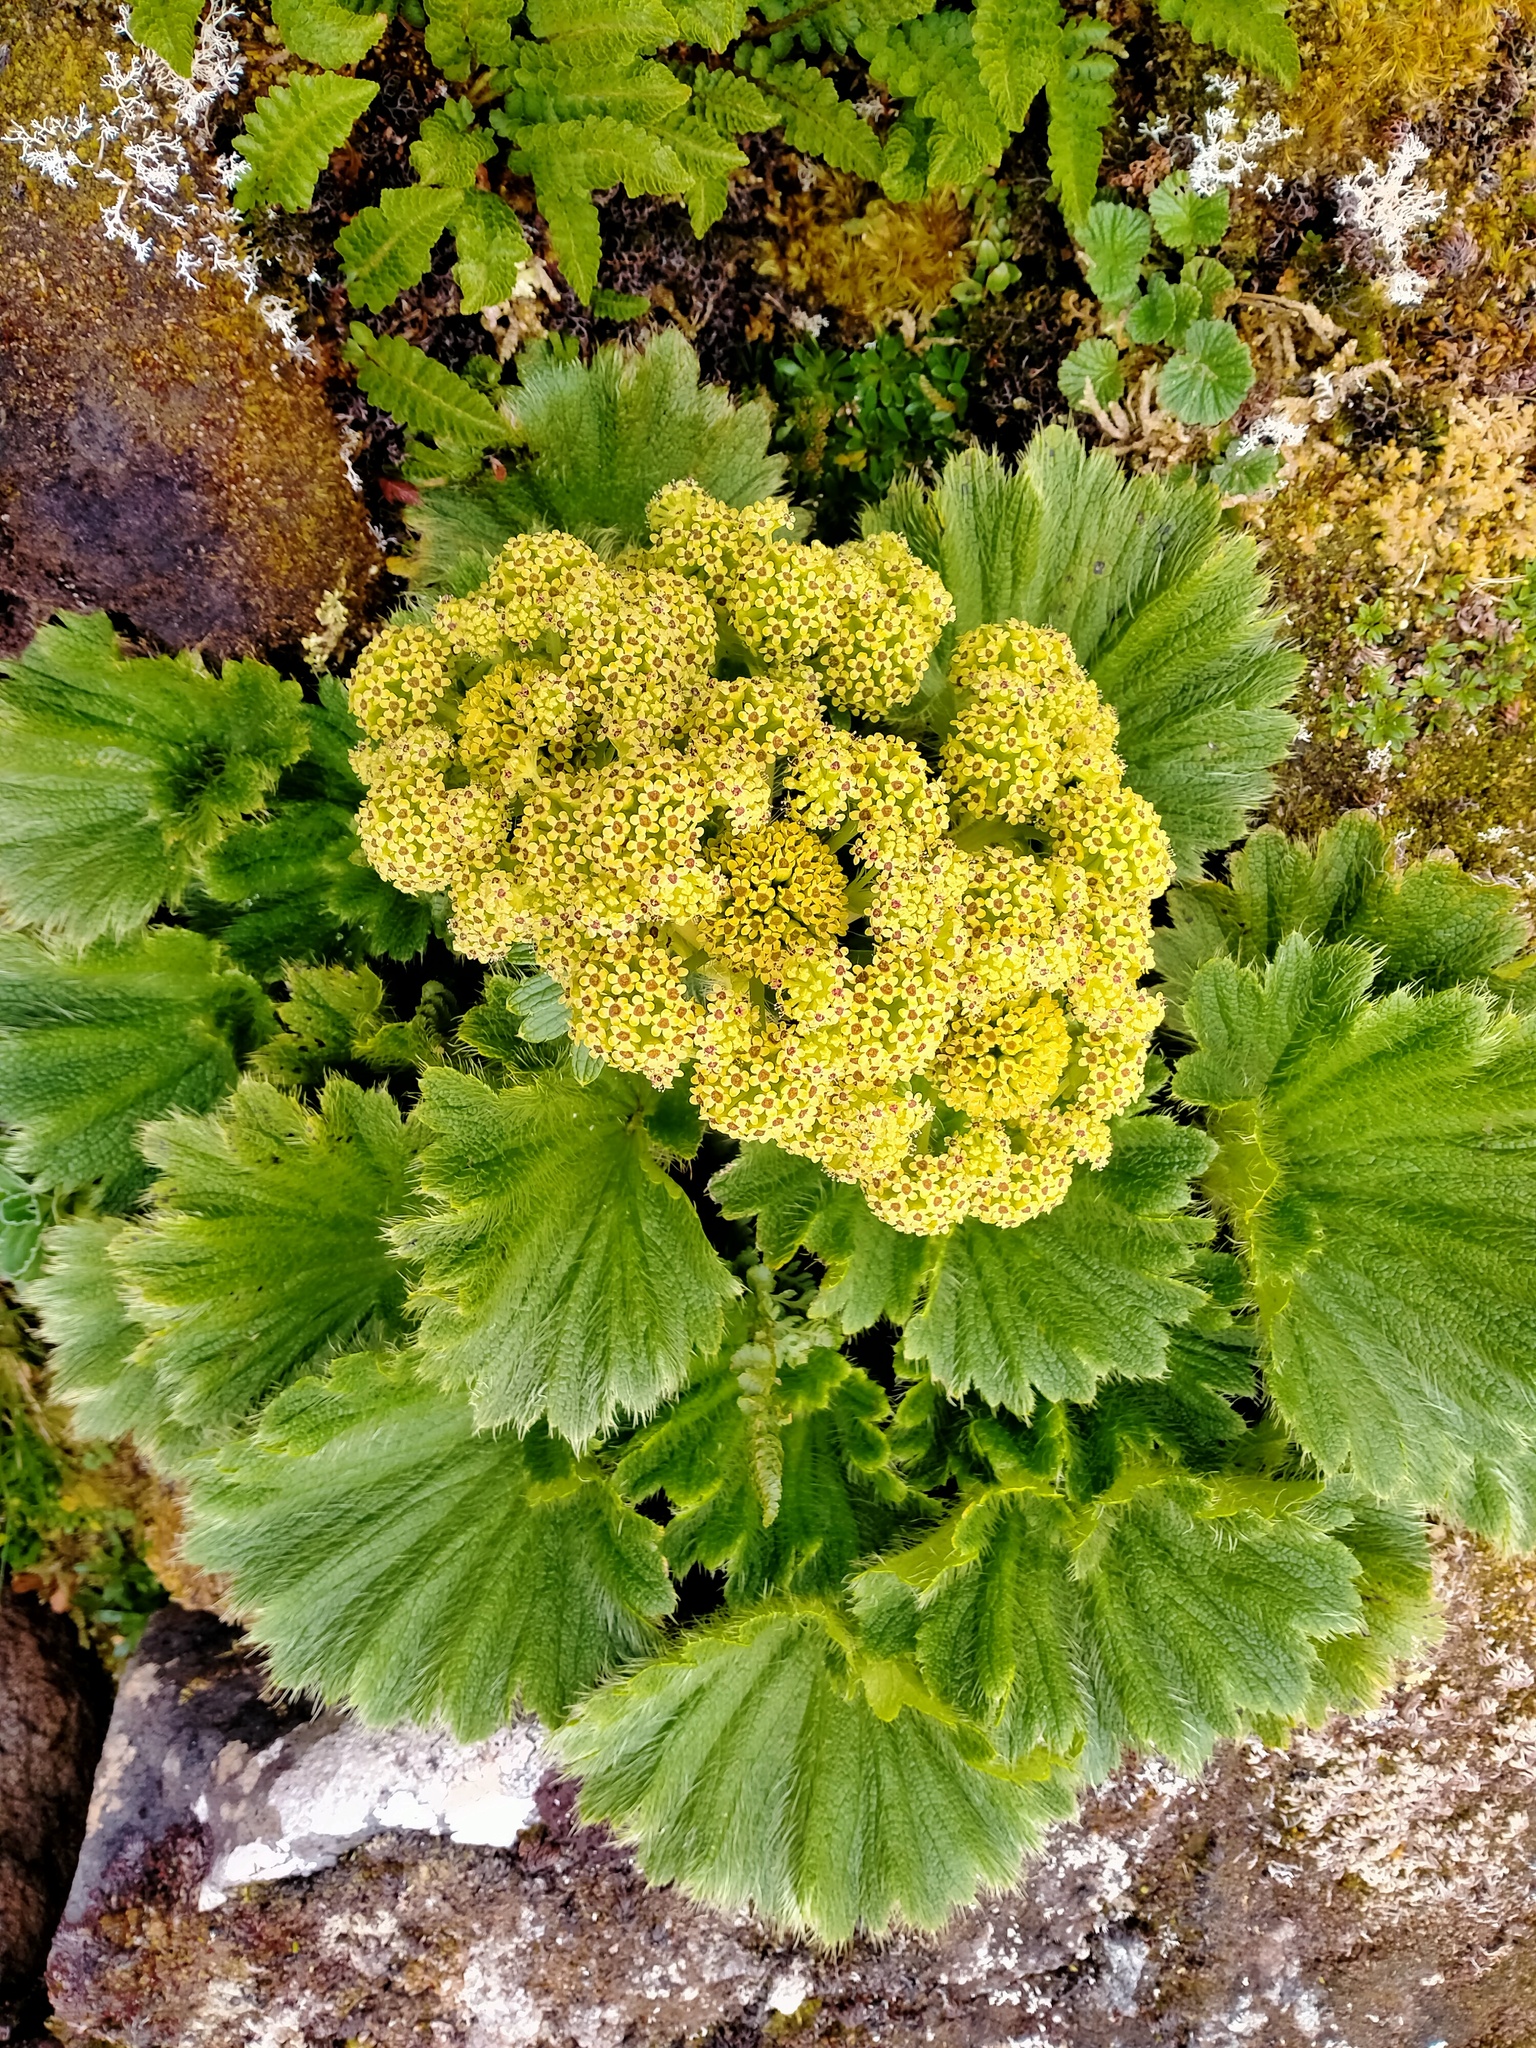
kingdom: Plantae
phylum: Tracheophyta
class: Magnoliopsida
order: Apiales
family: Apiaceae
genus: Azorella
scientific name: Azorella polaris
